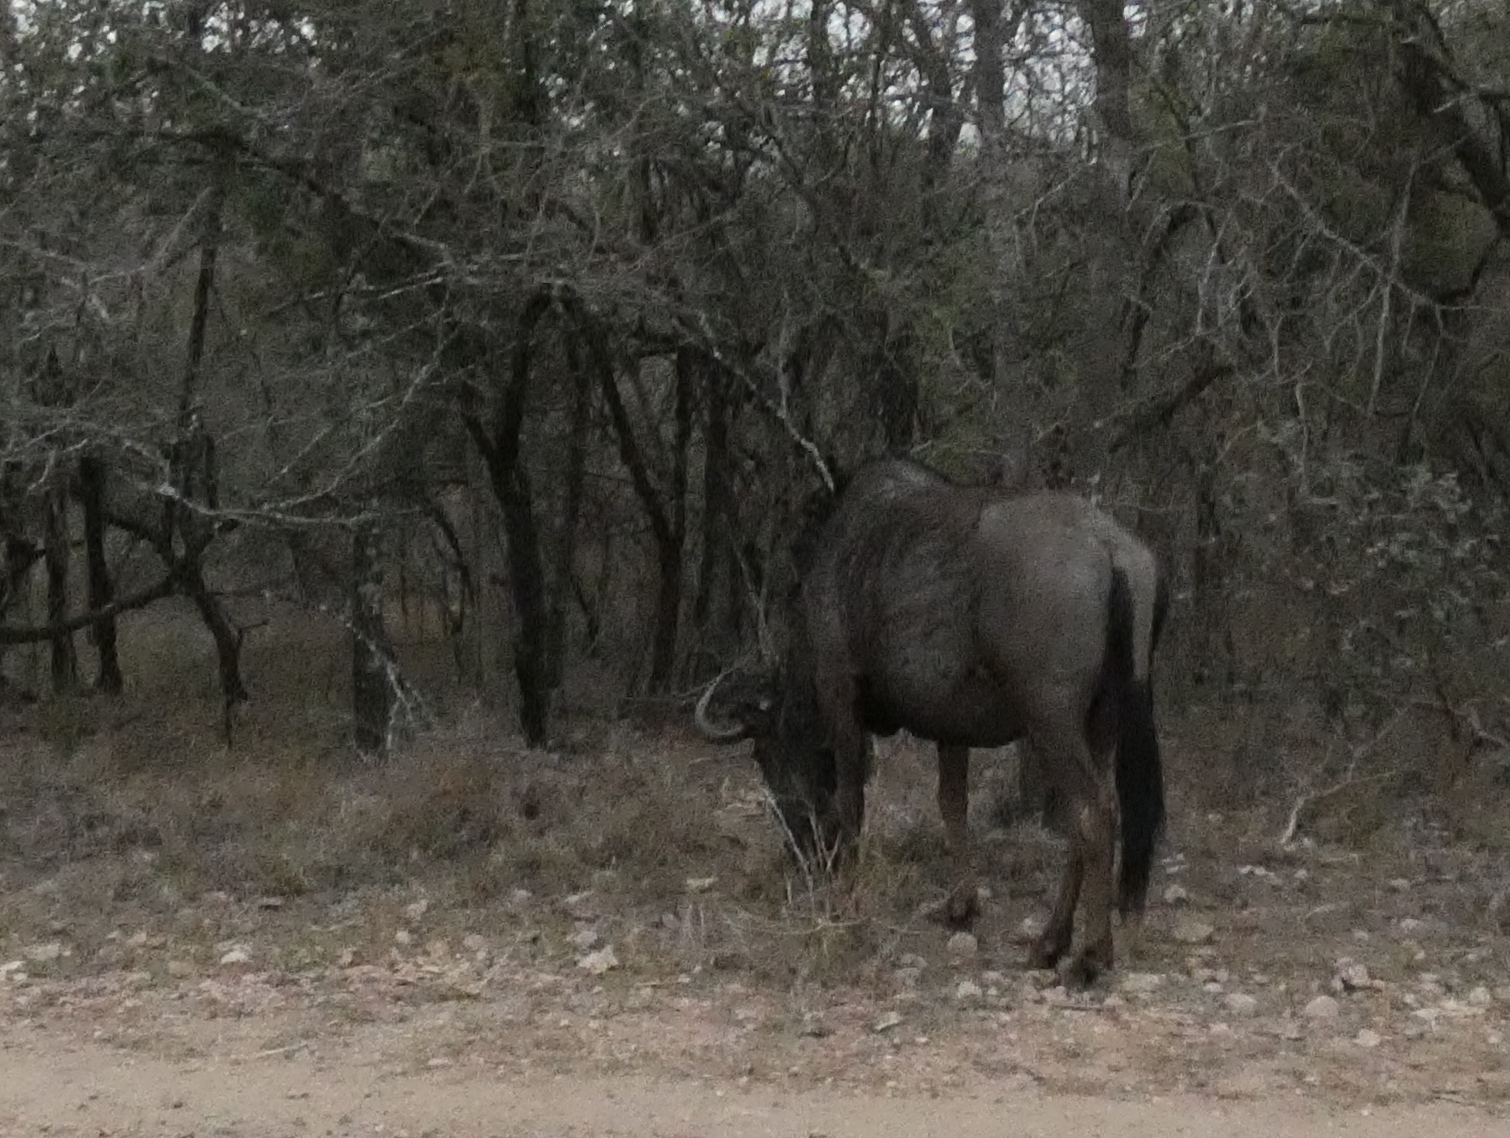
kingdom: Animalia
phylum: Chordata
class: Mammalia
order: Artiodactyla
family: Bovidae
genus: Connochaetes
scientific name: Connochaetes taurinus
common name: Blue wildebeest
